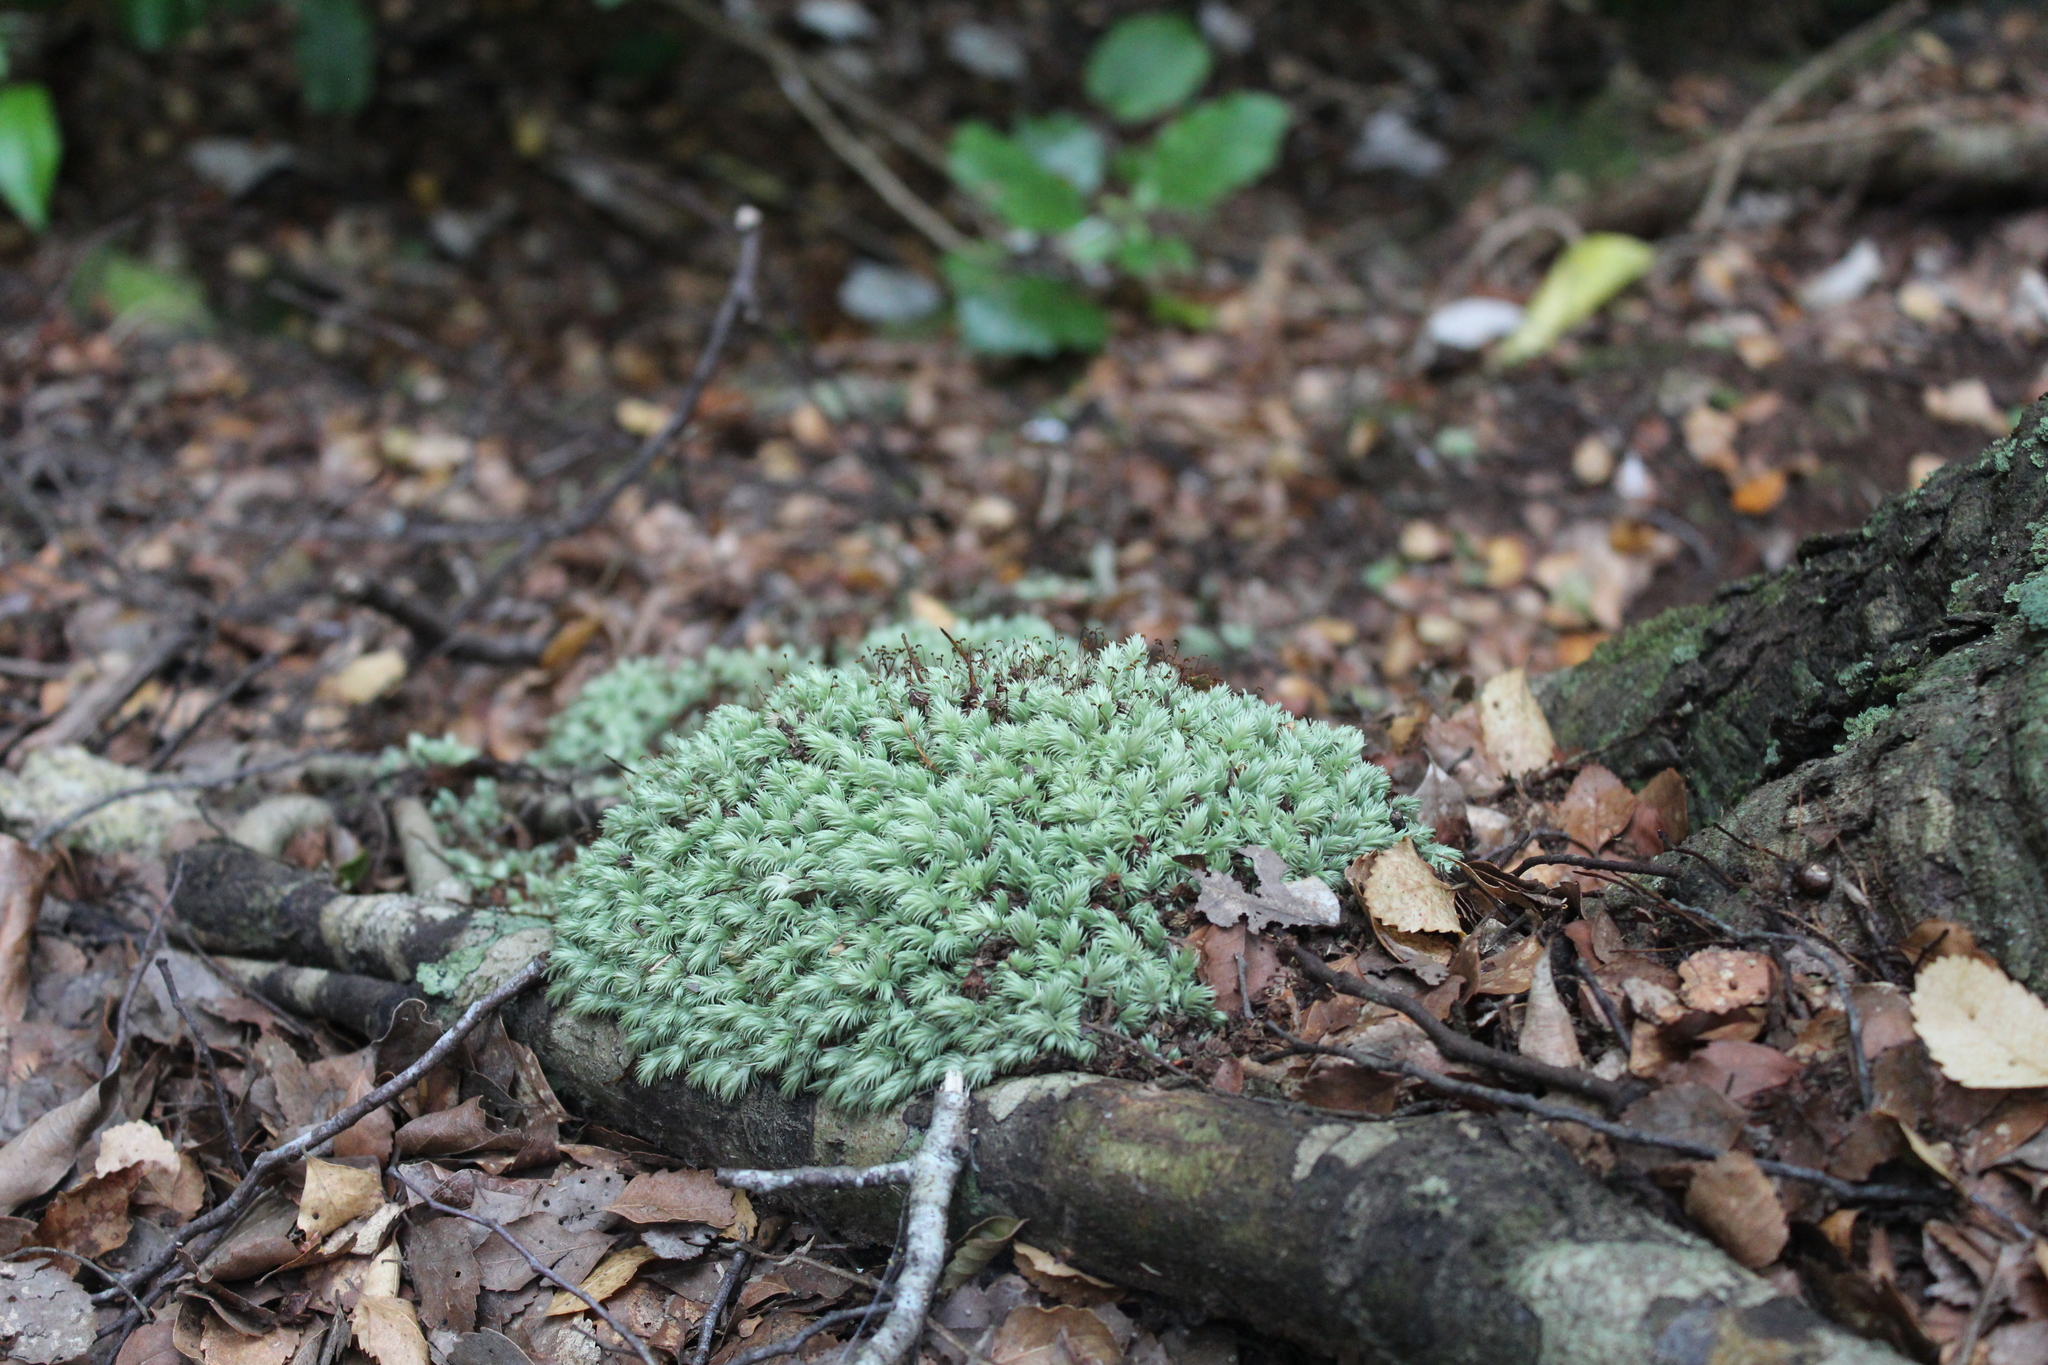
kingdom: Plantae
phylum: Bryophyta
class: Bryopsida
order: Dicranales
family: Leucobryaceae
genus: Leucobryum
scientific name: Leucobryum javense
